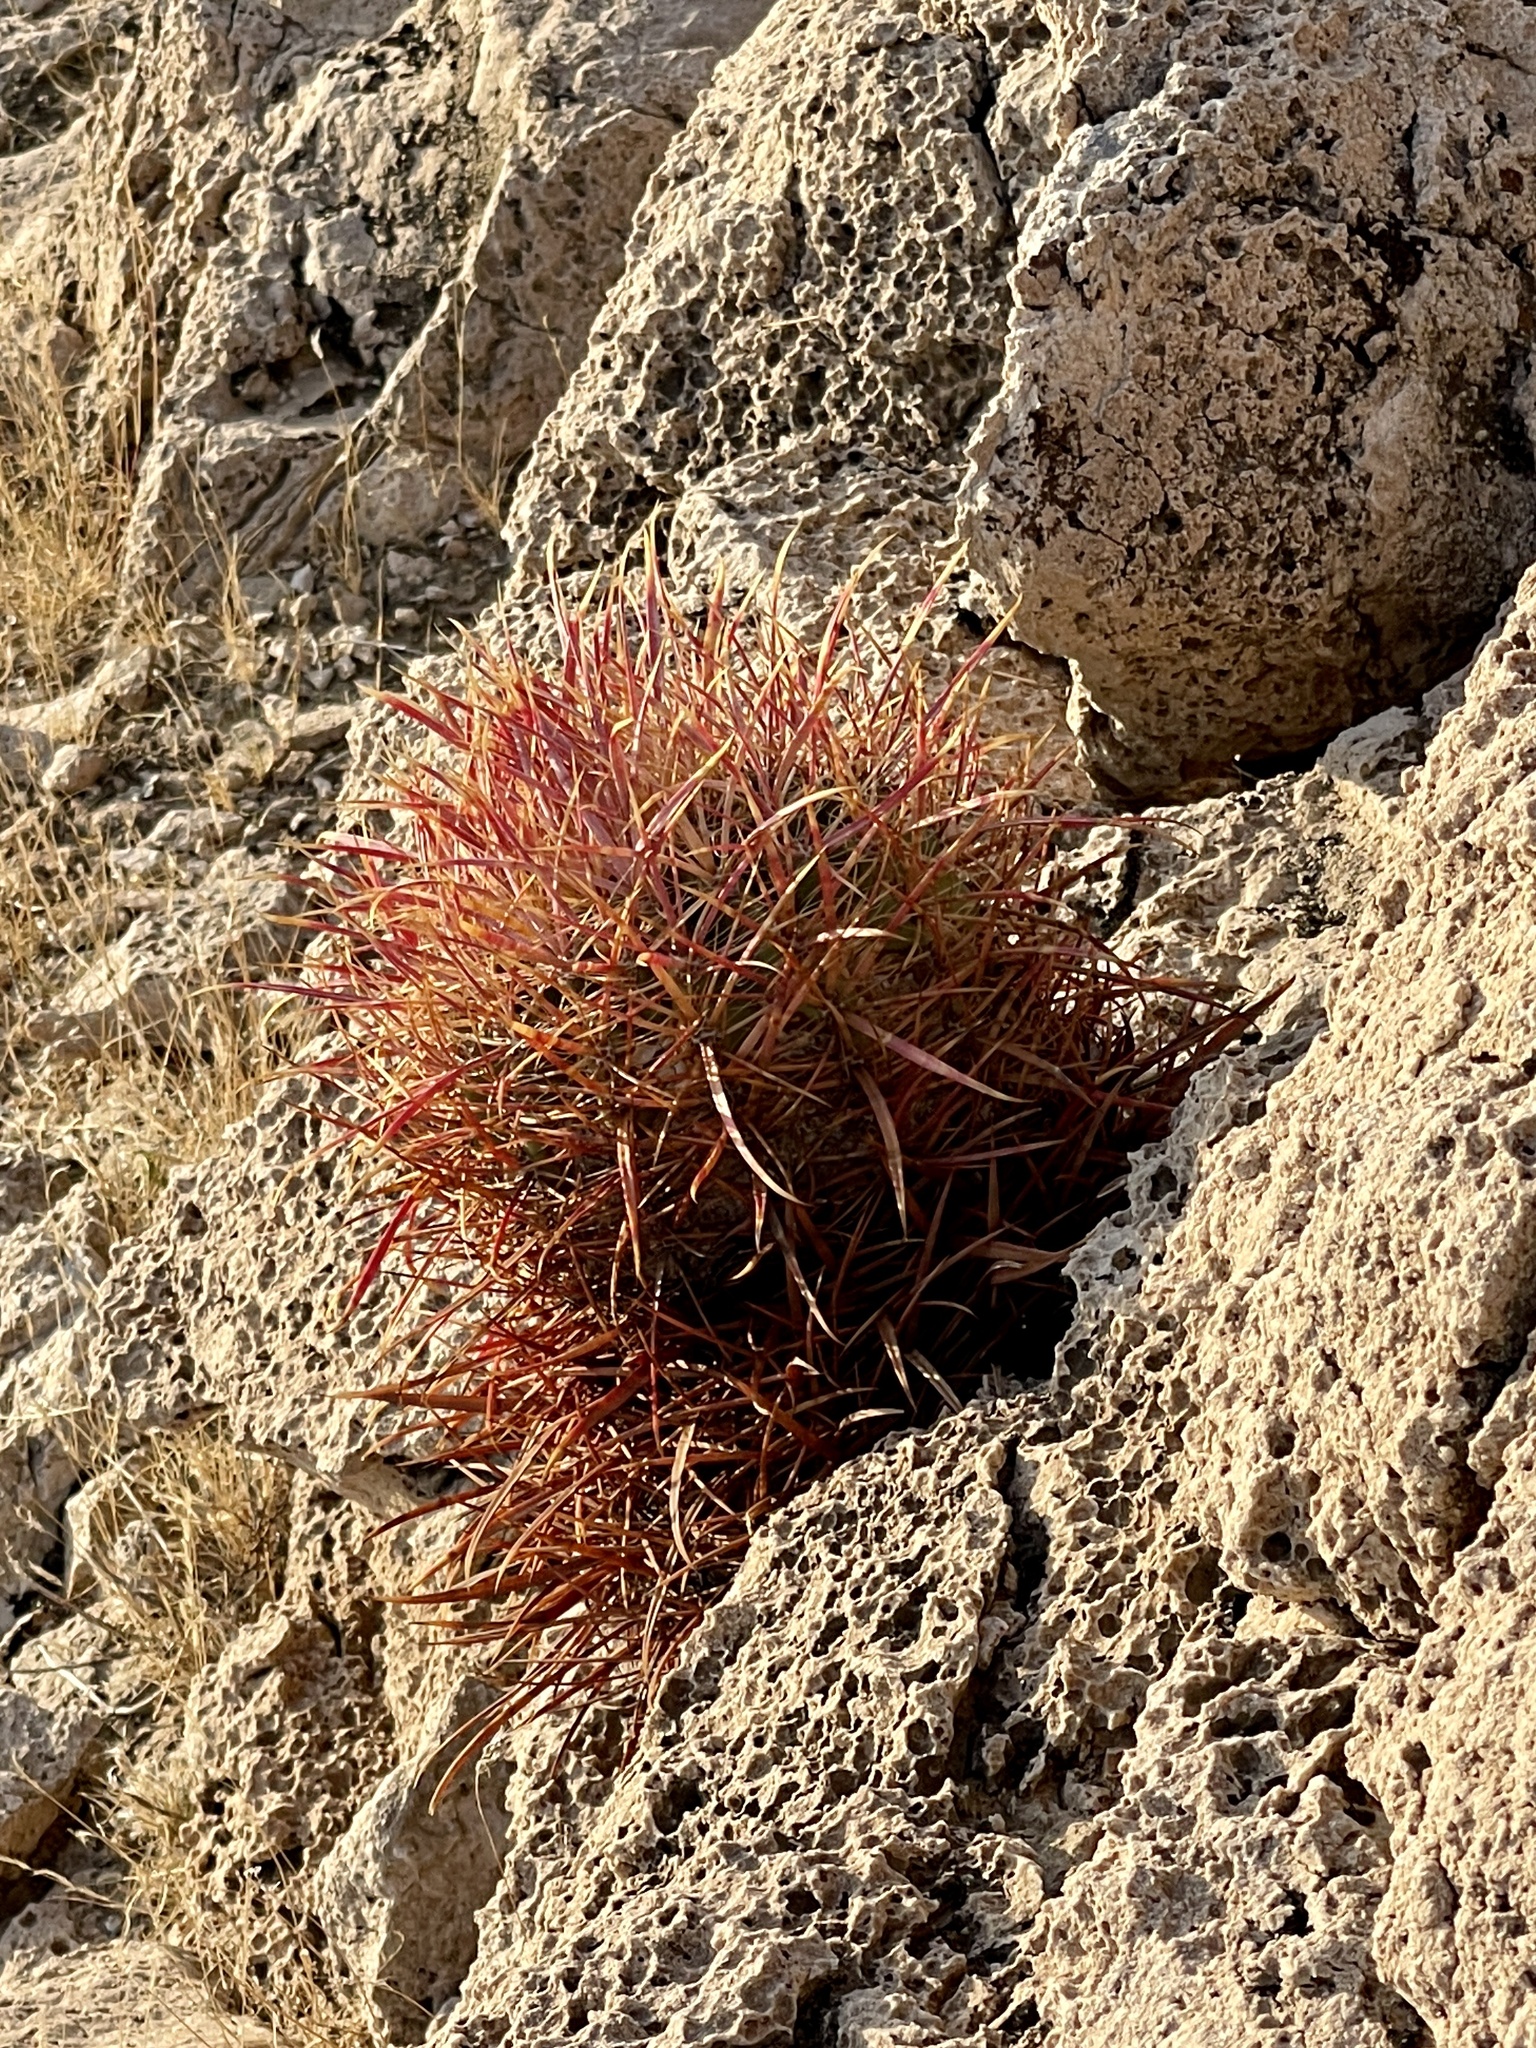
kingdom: Plantae
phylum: Tracheophyta
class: Magnoliopsida
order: Caryophyllales
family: Cactaceae
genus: Ferocactus
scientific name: Ferocactus cylindraceus
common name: California barrel cactus
